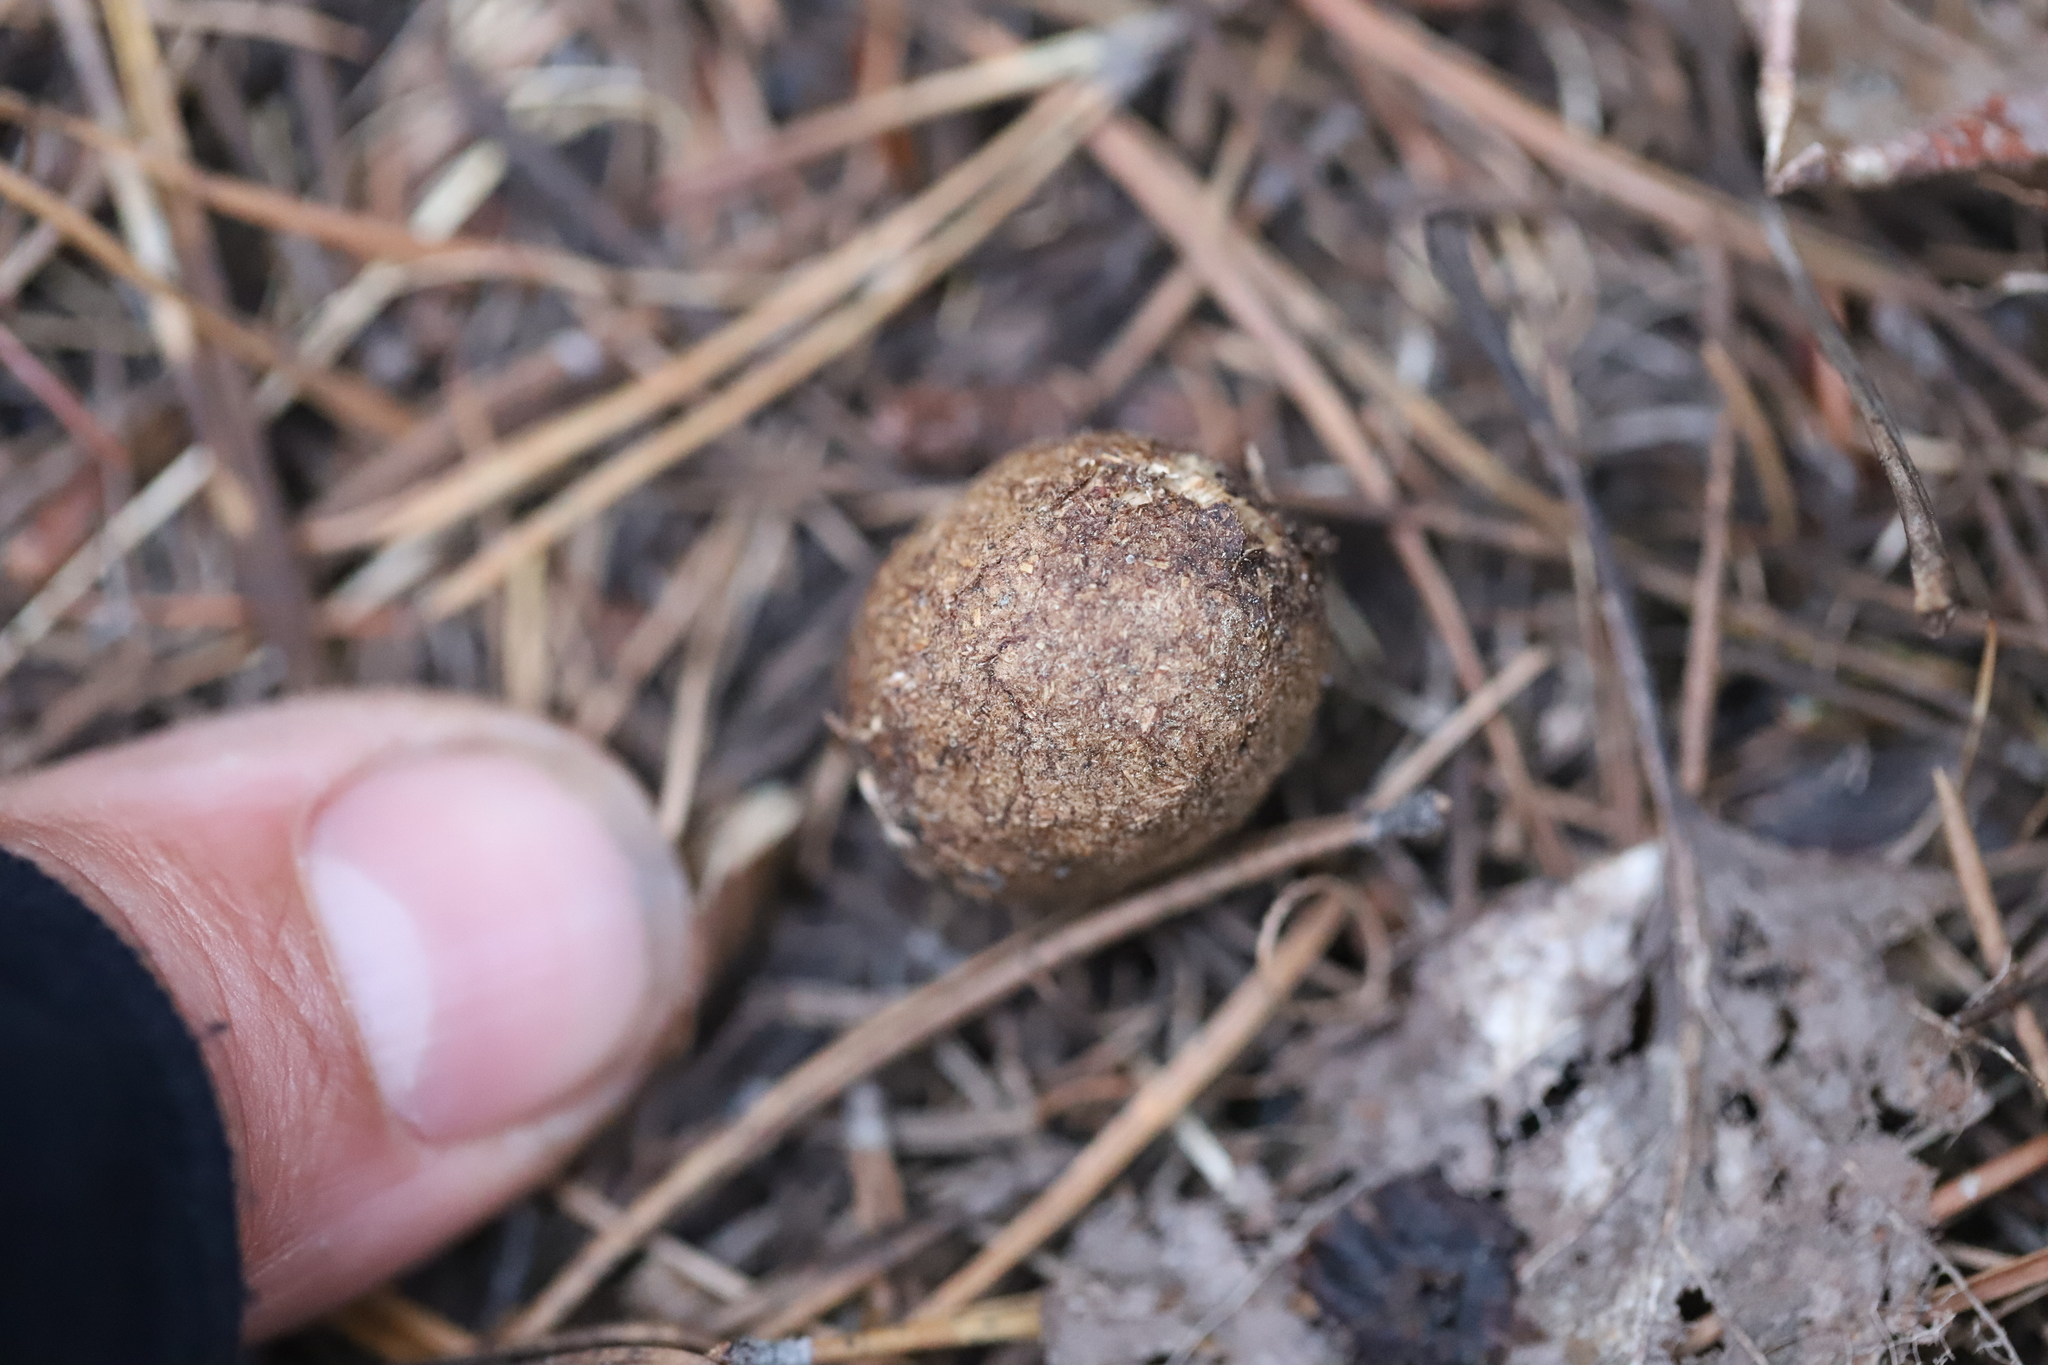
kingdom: Animalia
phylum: Chordata
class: Mammalia
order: Artiodactyla
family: Cervidae
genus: Alces
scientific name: Alces alces
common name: Moose
